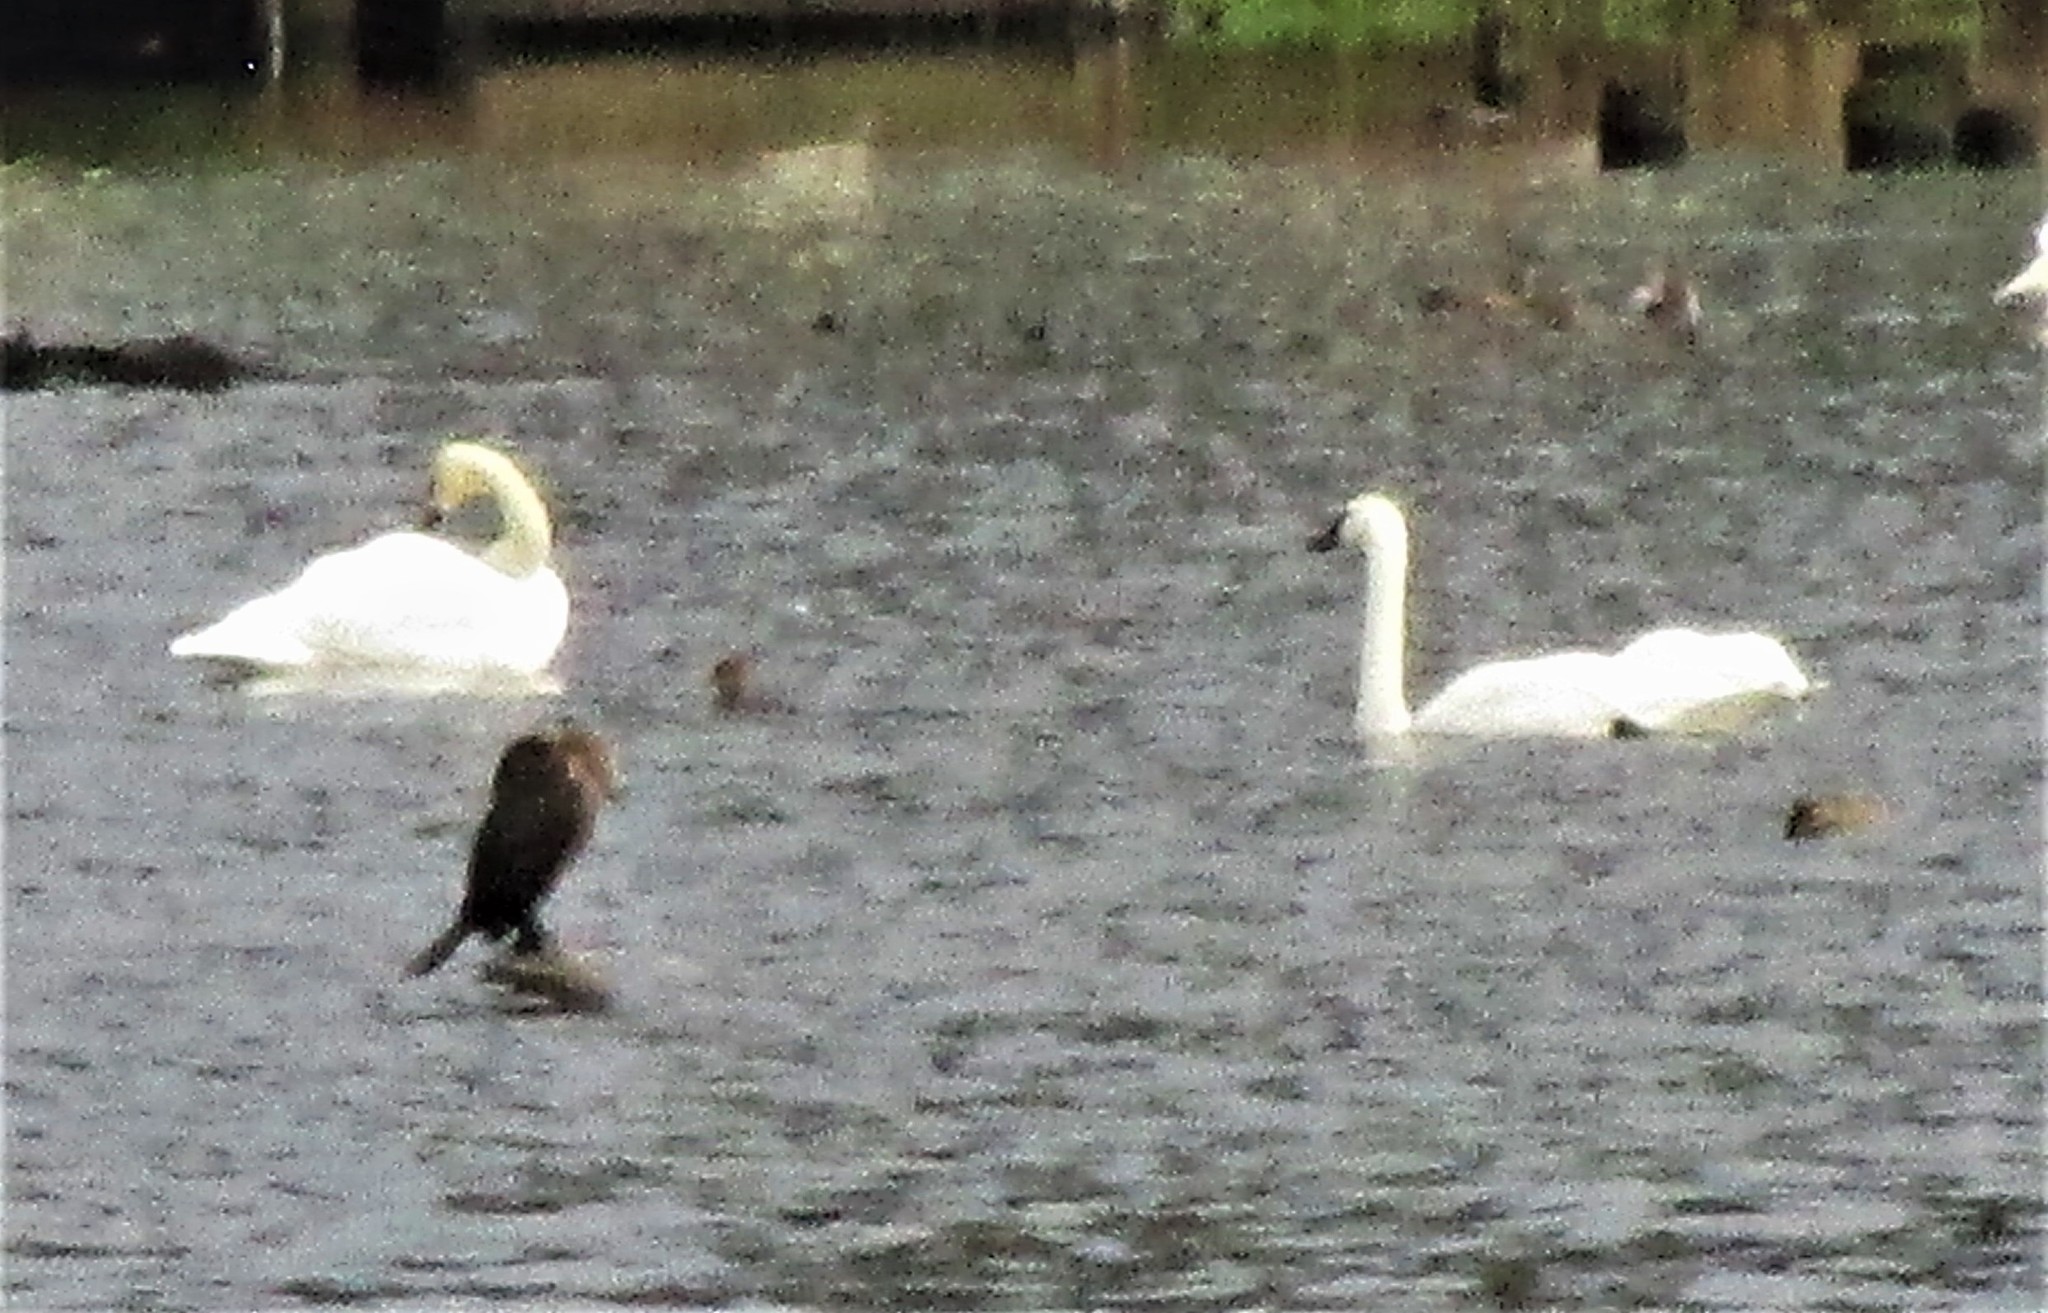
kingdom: Animalia
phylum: Chordata
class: Aves
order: Anseriformes
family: Anatidae
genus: Cygnus
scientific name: Cygnus buccinator
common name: Trumpeter swan
